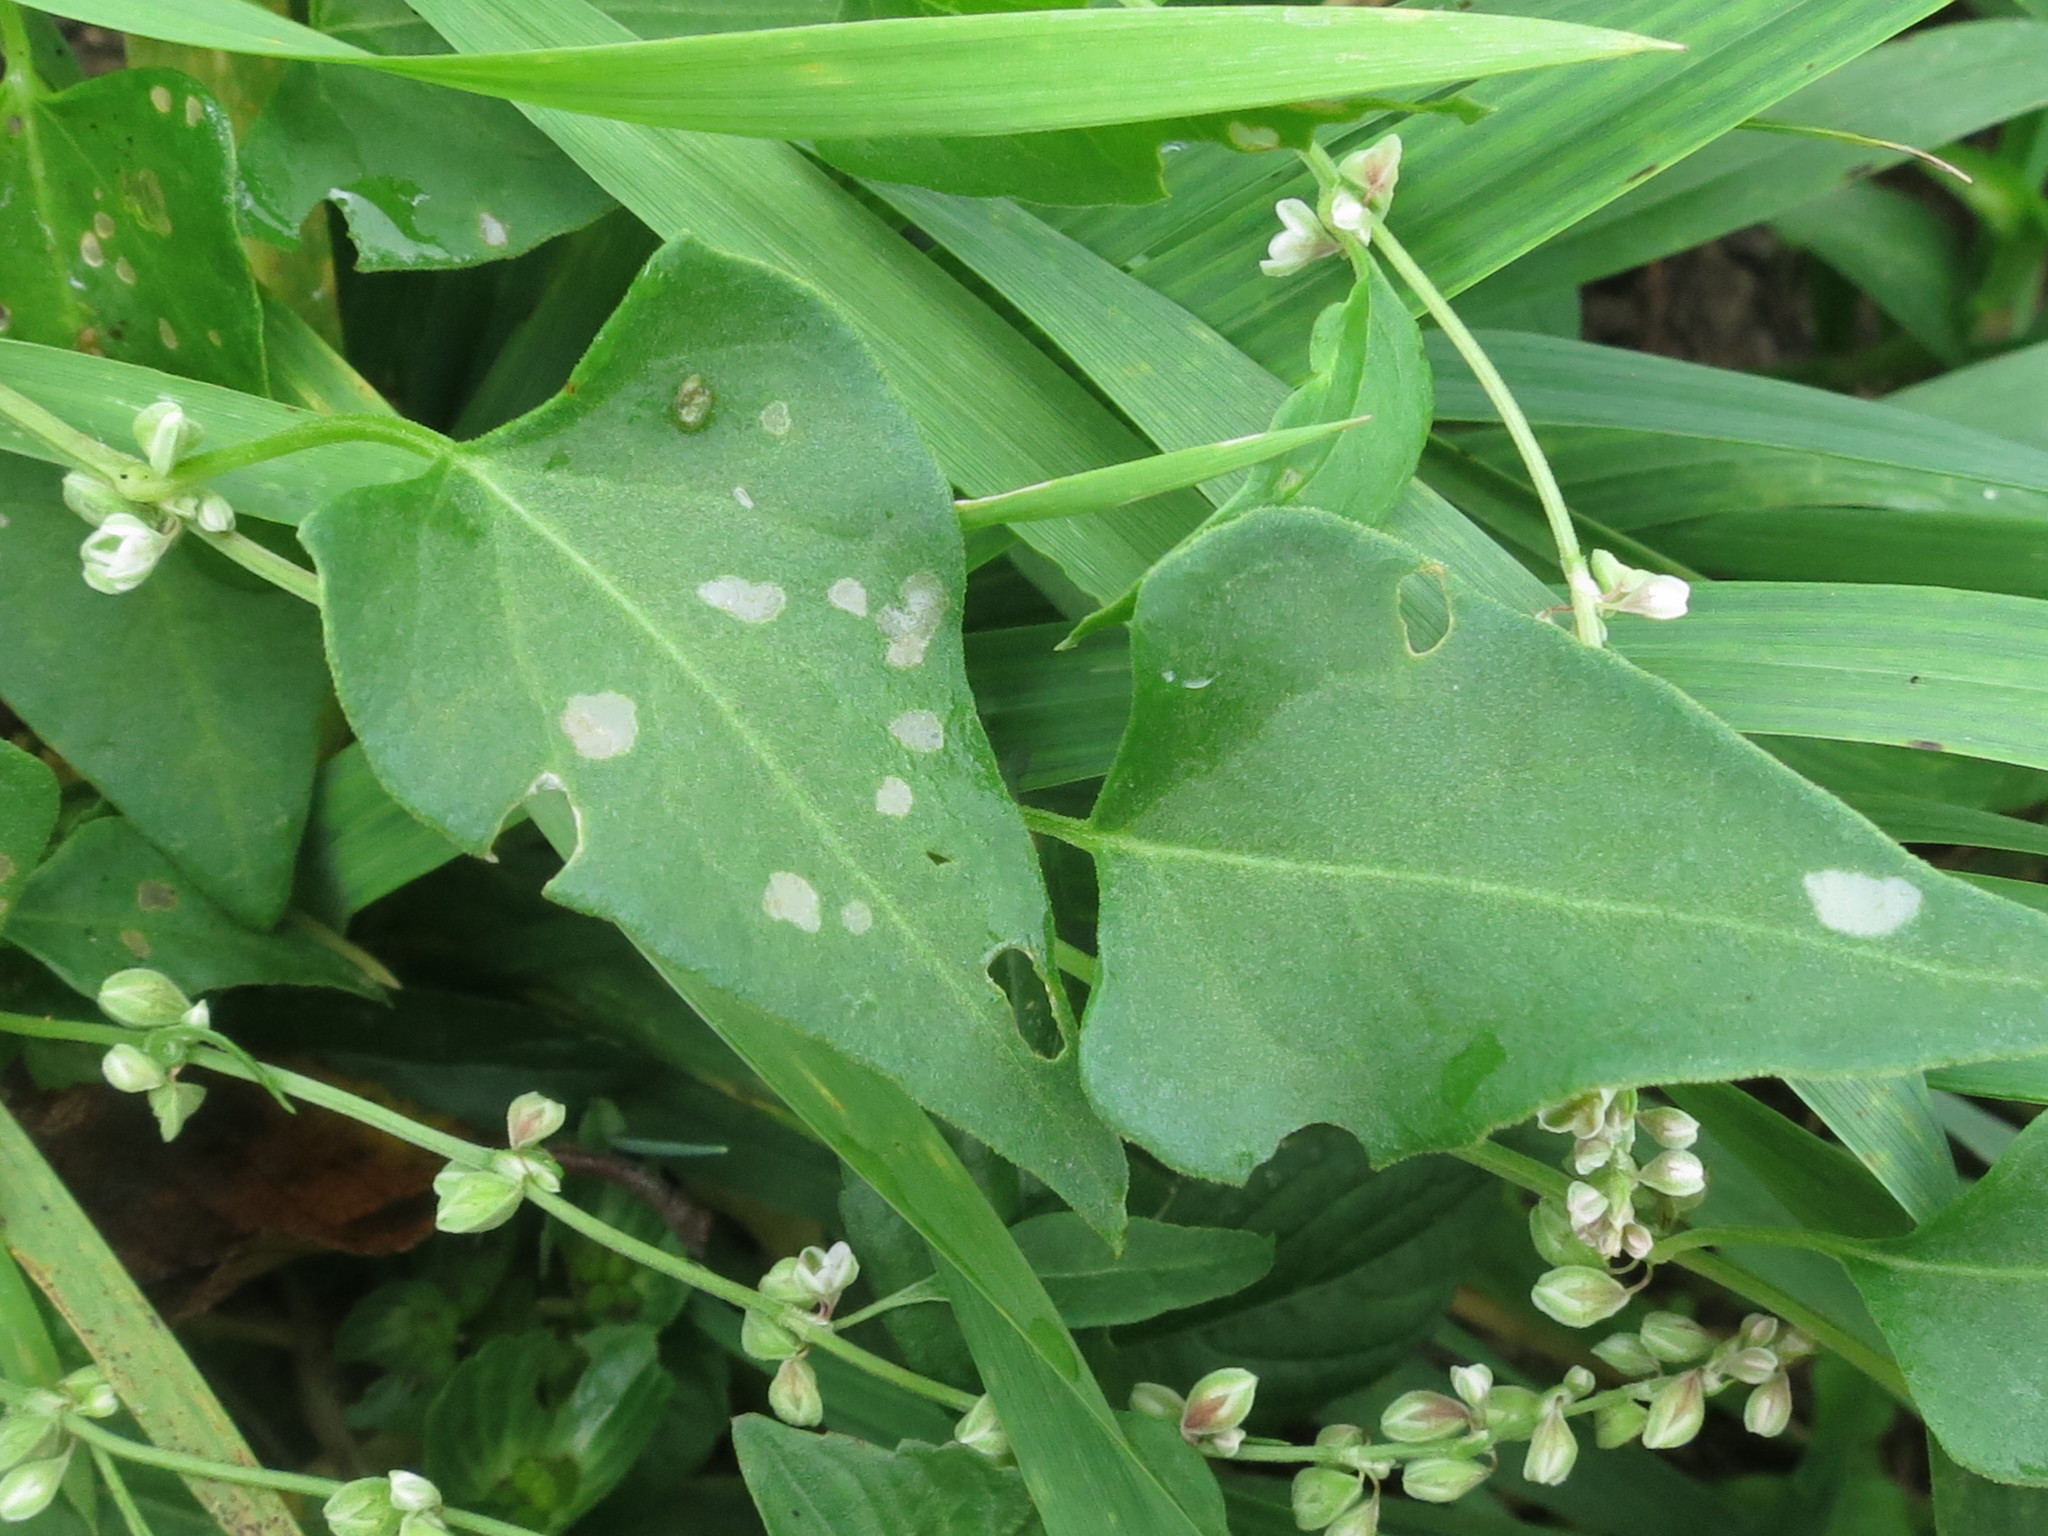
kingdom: Plantae
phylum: Tracheophyta
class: Magnoliopsida
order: Caryophyllales
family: Polygonaceae
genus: Fallopia
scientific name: Fallopia convolvulus
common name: Black bindweed
